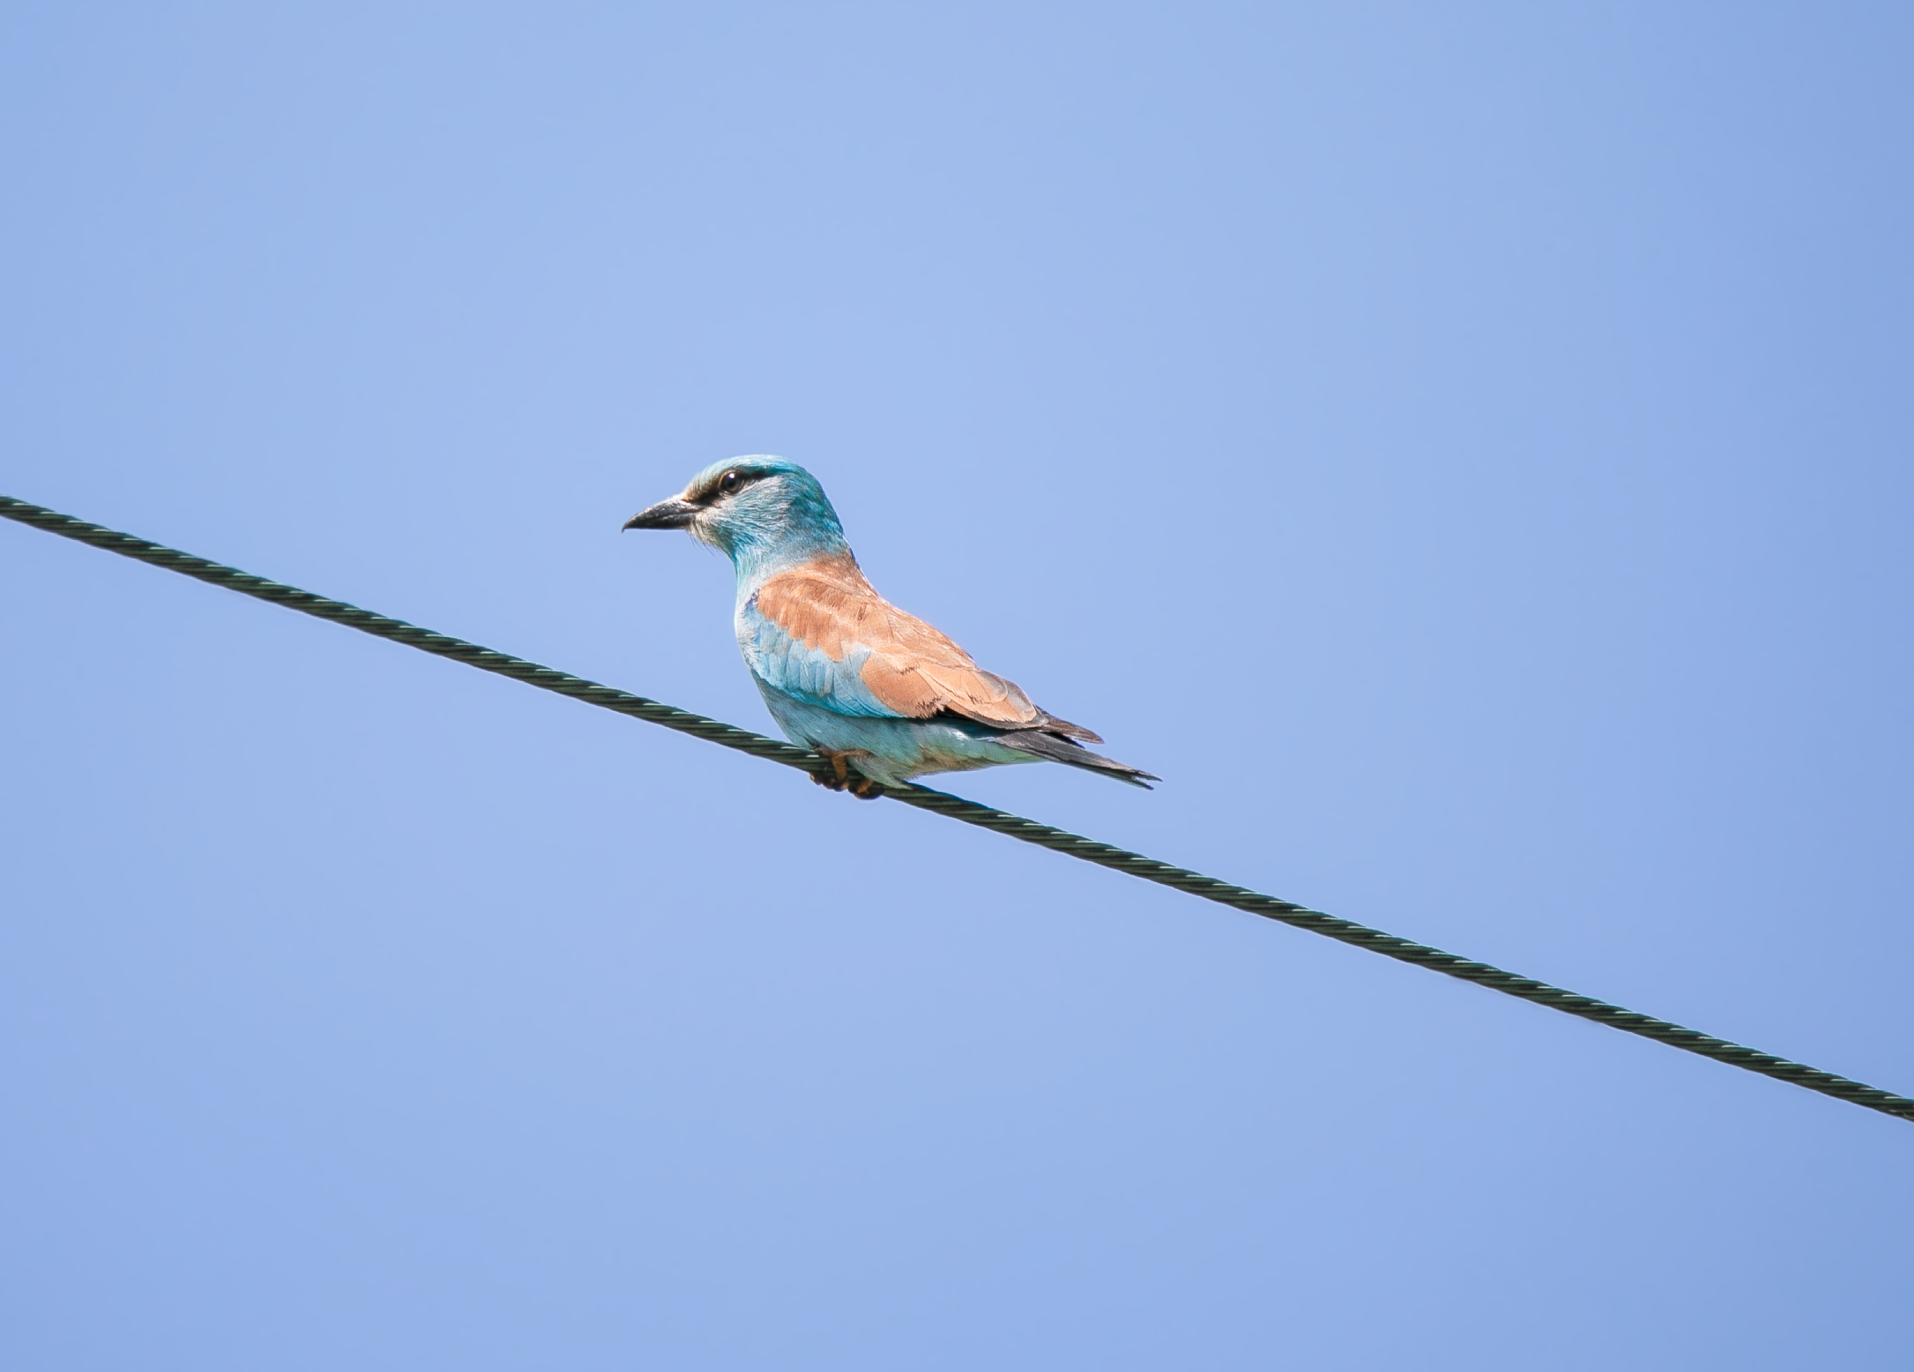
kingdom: Animalia
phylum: Chordata
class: Aves
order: Coraciiformes
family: Coraciidae
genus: Coracias
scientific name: Coracias garrulus
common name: European roller
